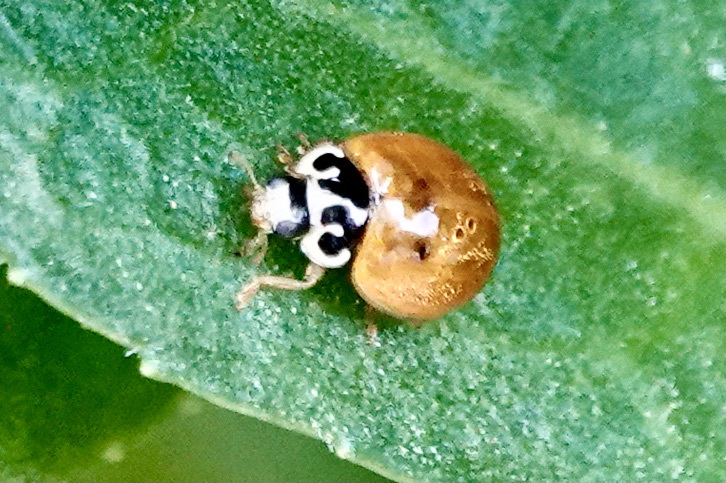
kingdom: Animalia
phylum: Arthropoda
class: Insecta
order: Coleoptera
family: Coccinellidae
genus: Cycloneda
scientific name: Cycloneda munda
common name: Polished lady beetle
